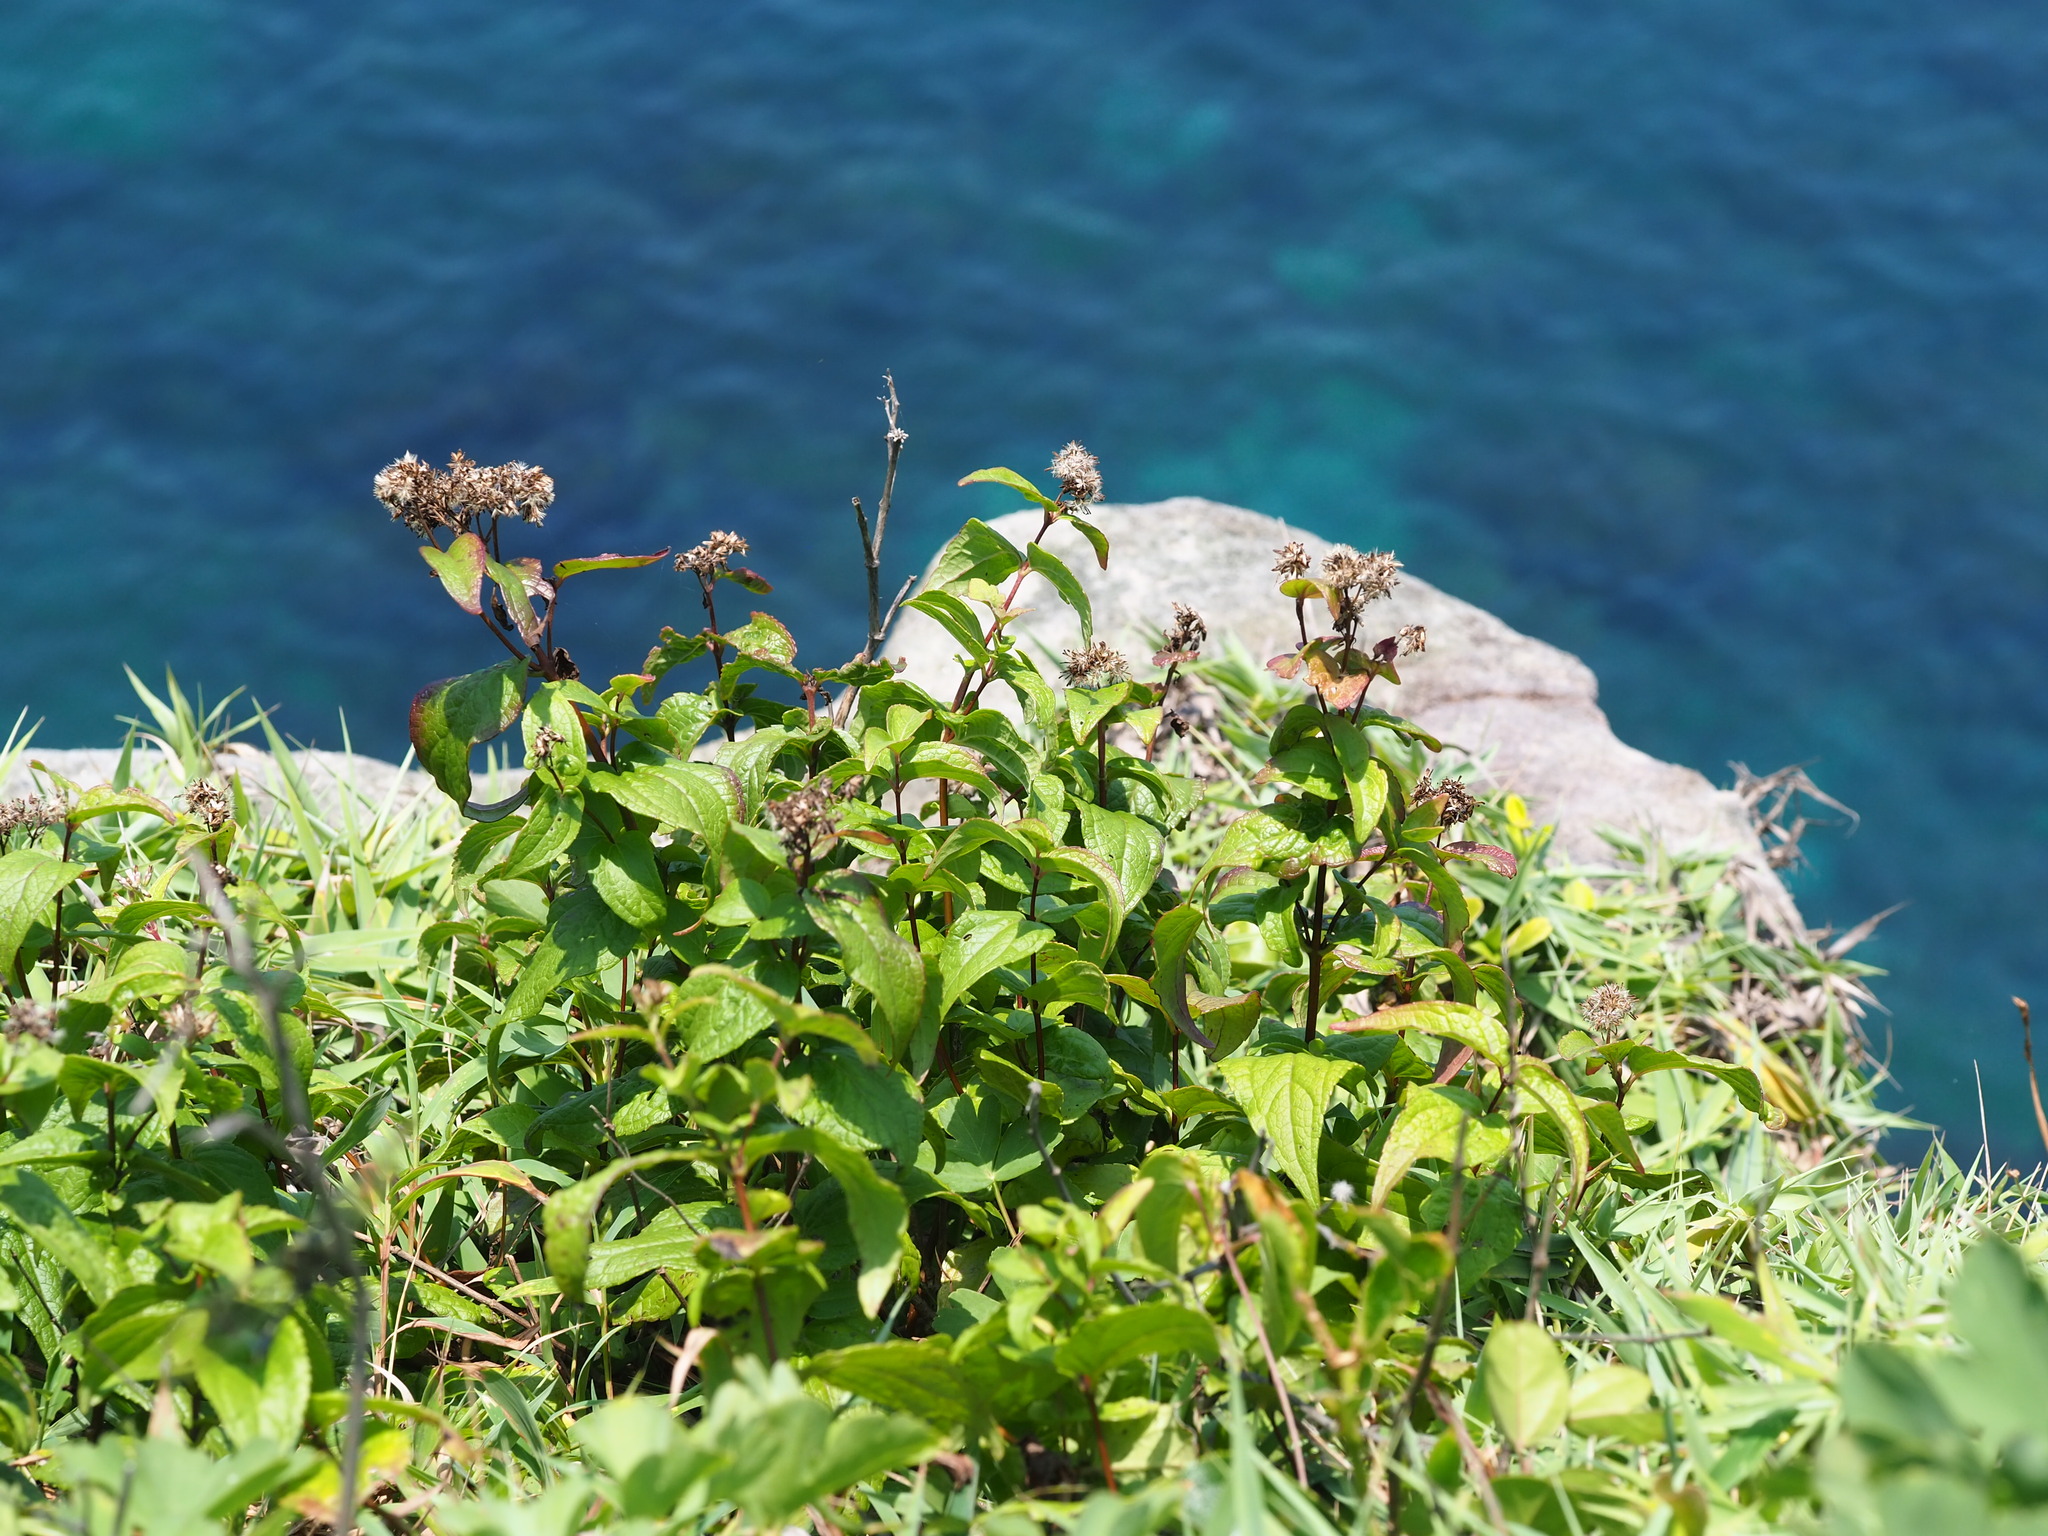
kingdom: Plantae
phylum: Tracheophyta
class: Magnoliopsida
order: Asterales
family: Asteraceae
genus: Eupatorium
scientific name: Eupatorium luchuense
